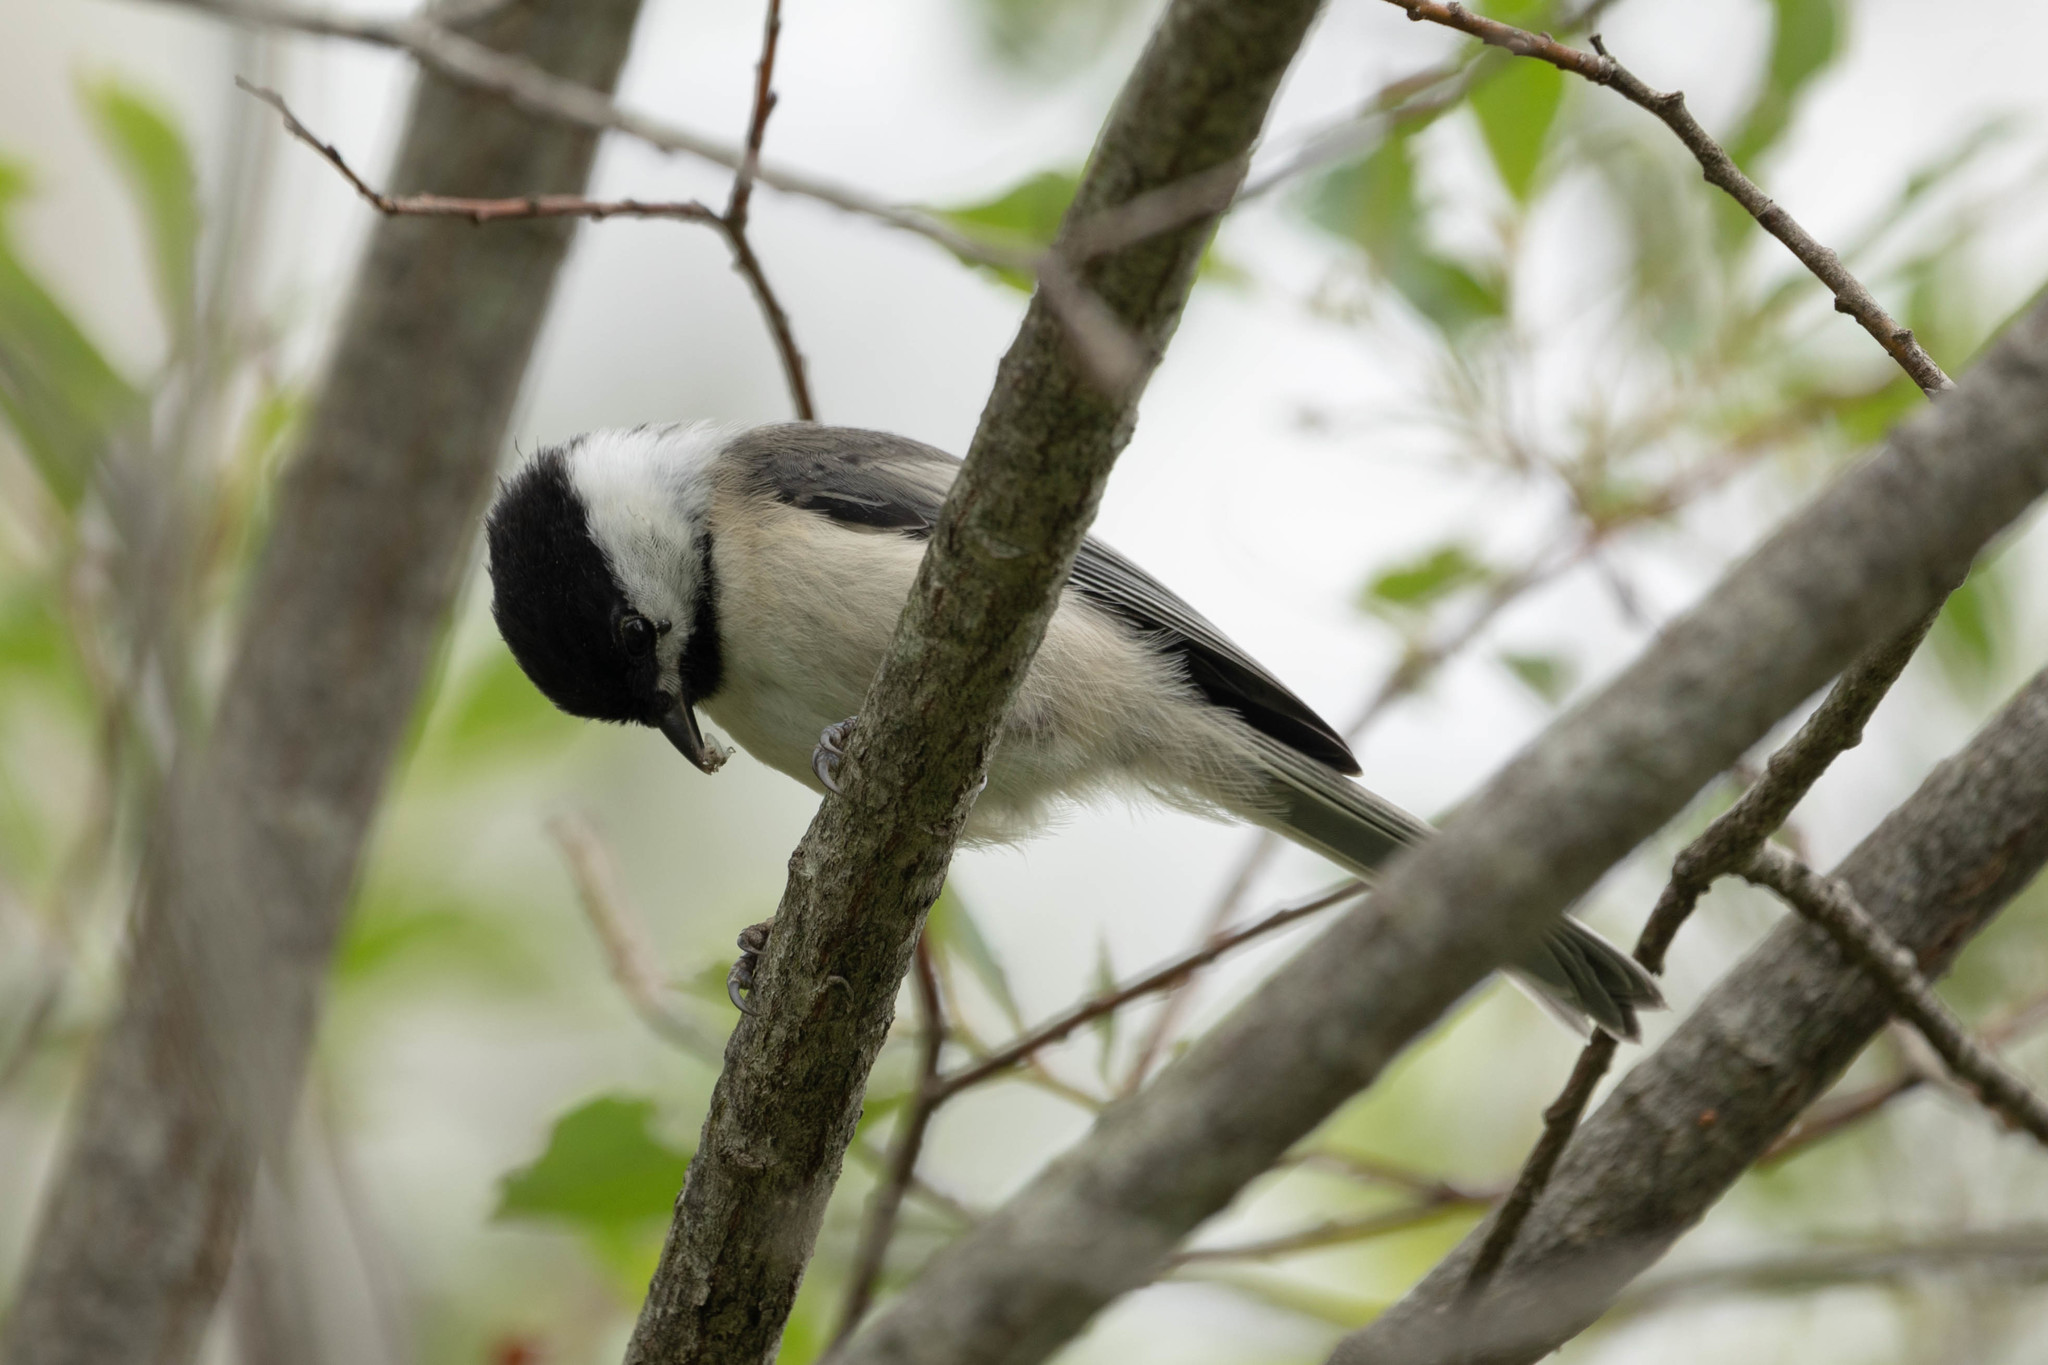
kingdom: Animalia
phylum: Chordata
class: Aves
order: Passeriformes
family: Paridae
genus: Poecile
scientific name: Poecile atricapillus
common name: Black-capped chickadee
